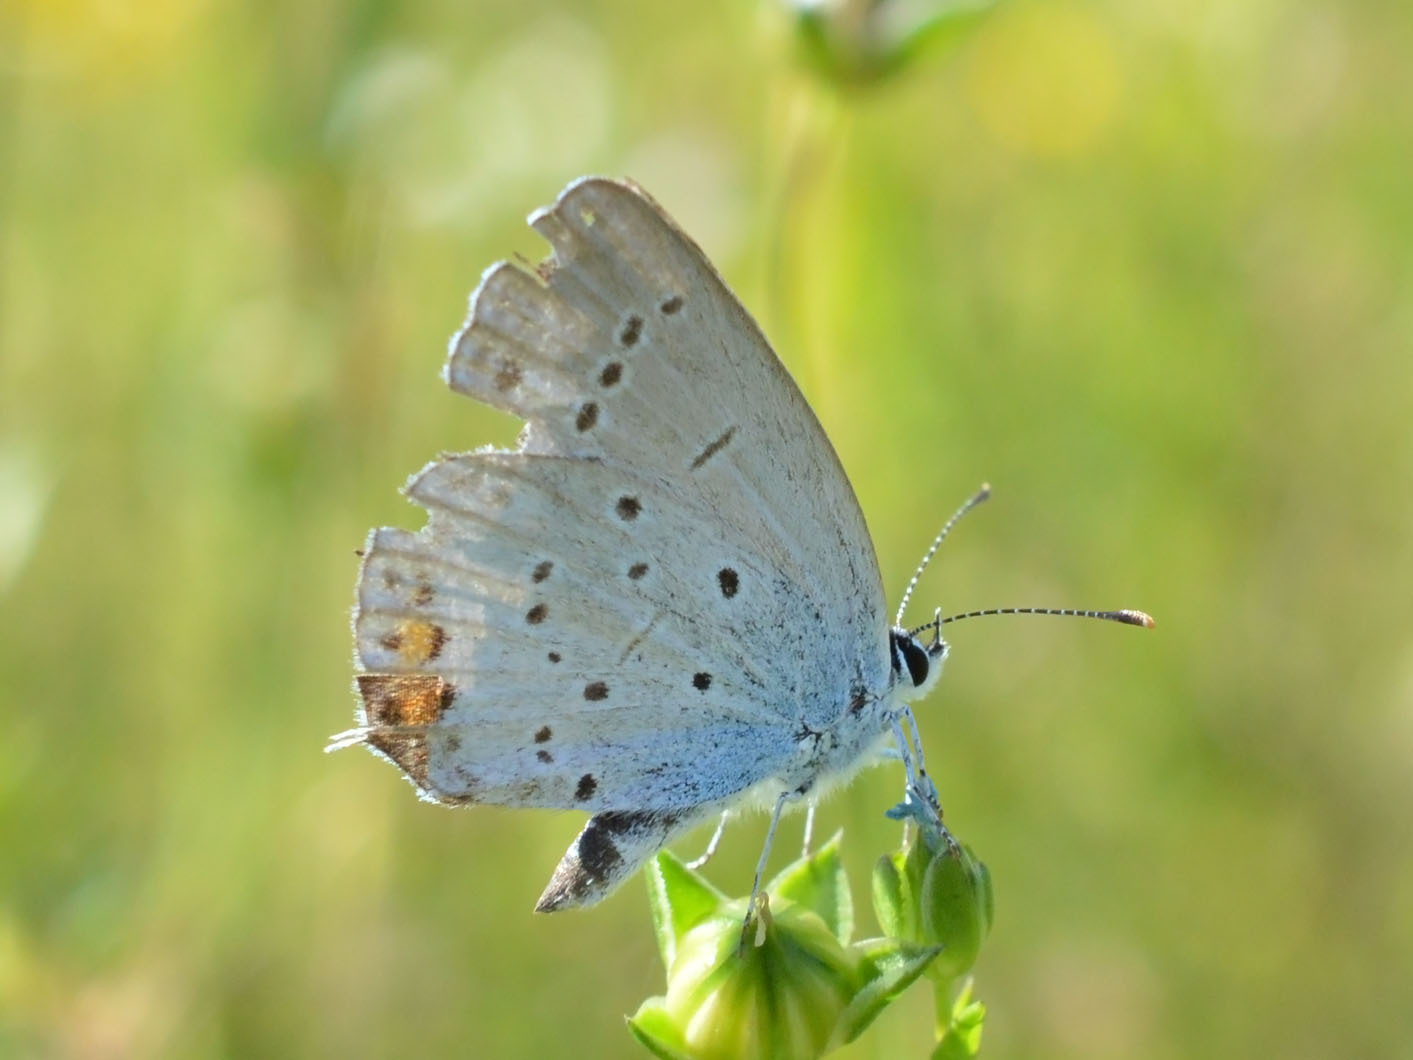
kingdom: Animalia
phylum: Arthropoda
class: Insecta
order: Lepidoptera
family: Lycaenidae
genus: Elkalyce
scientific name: Elkalyce argiades
